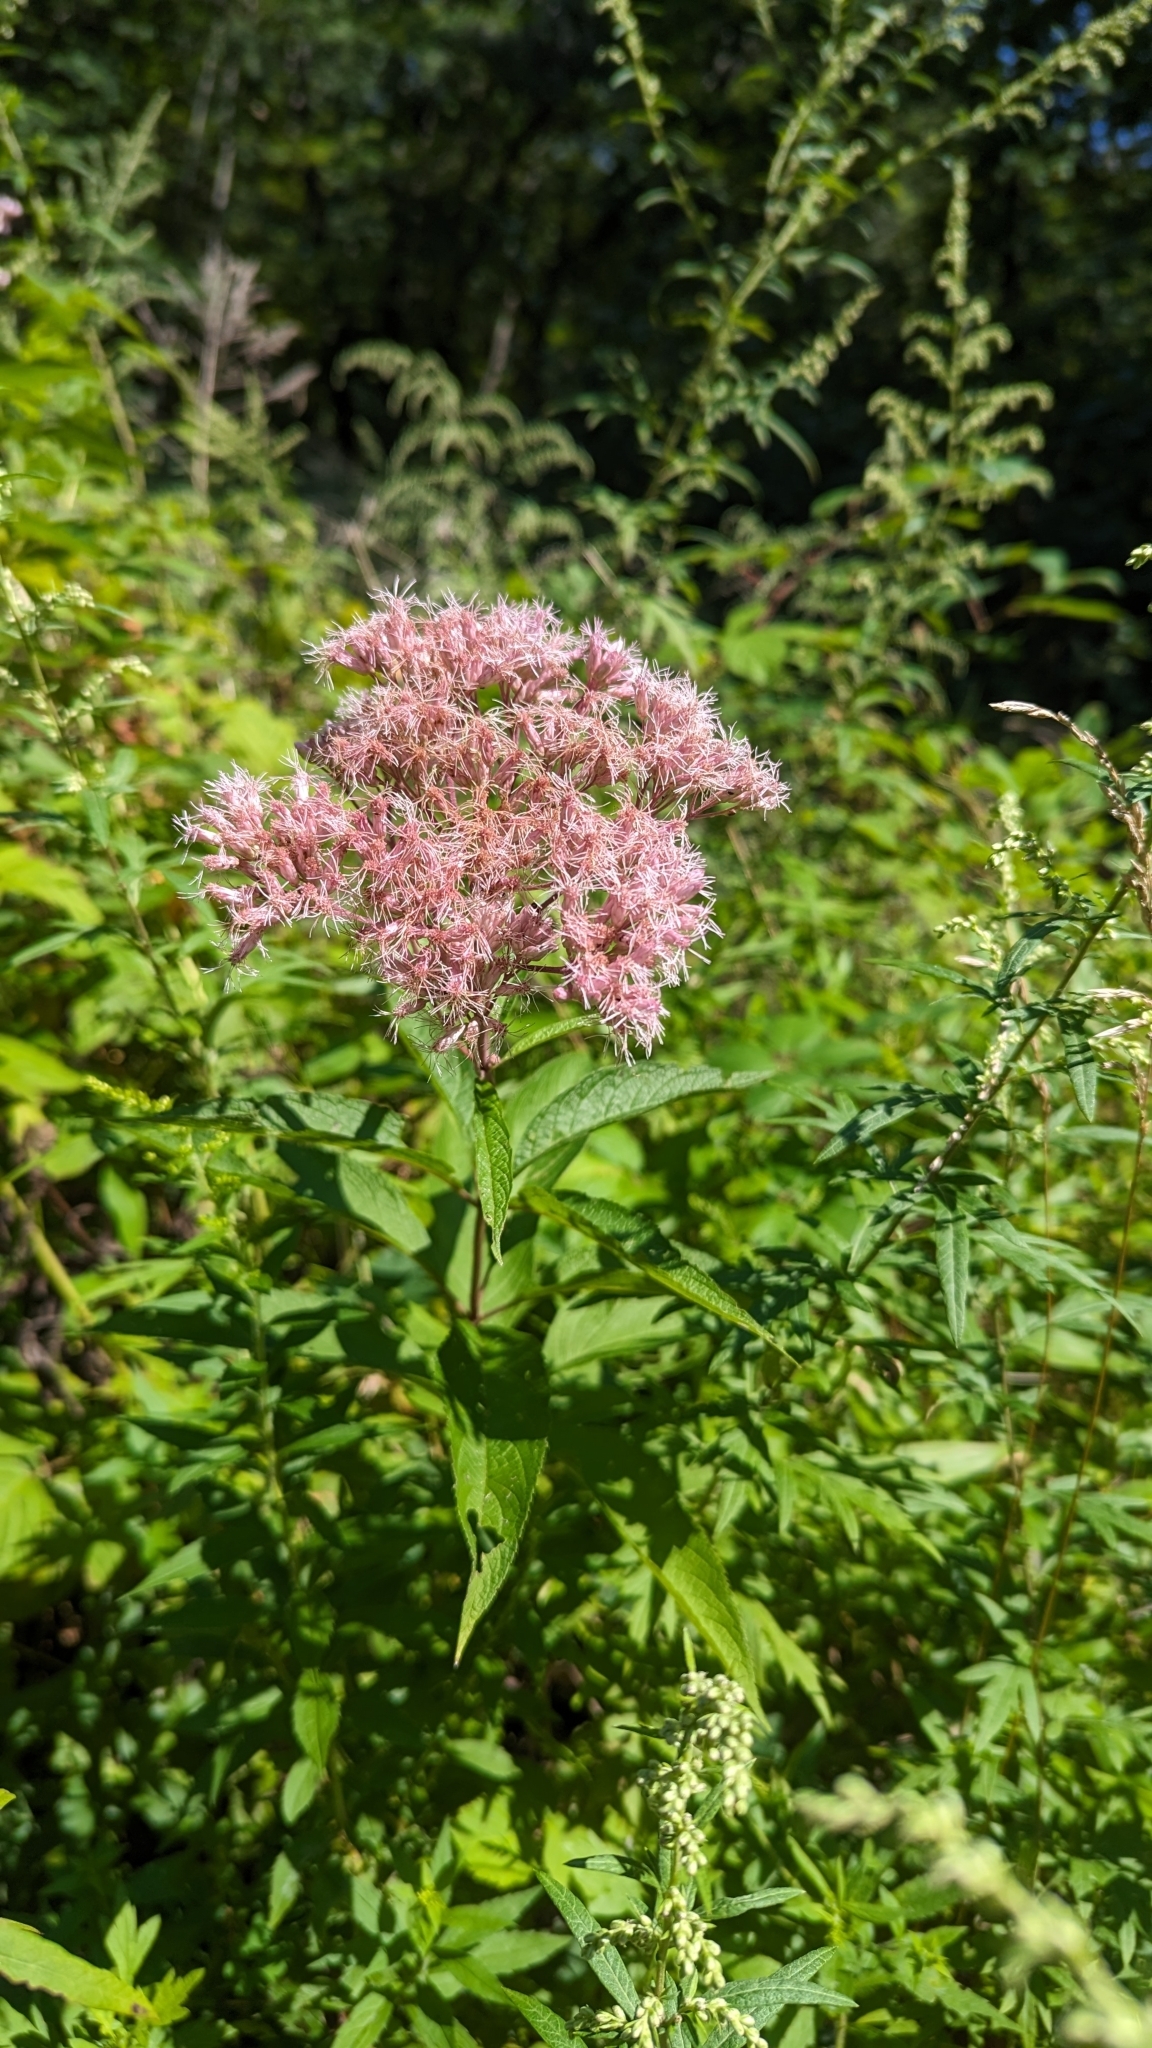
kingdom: Plantae
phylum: Tracheophyta
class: Magnoliopsida
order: Asterales
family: Asteraceae
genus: Eutrochium
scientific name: Eutrochium maculatum
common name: Spotted joe pye weed
